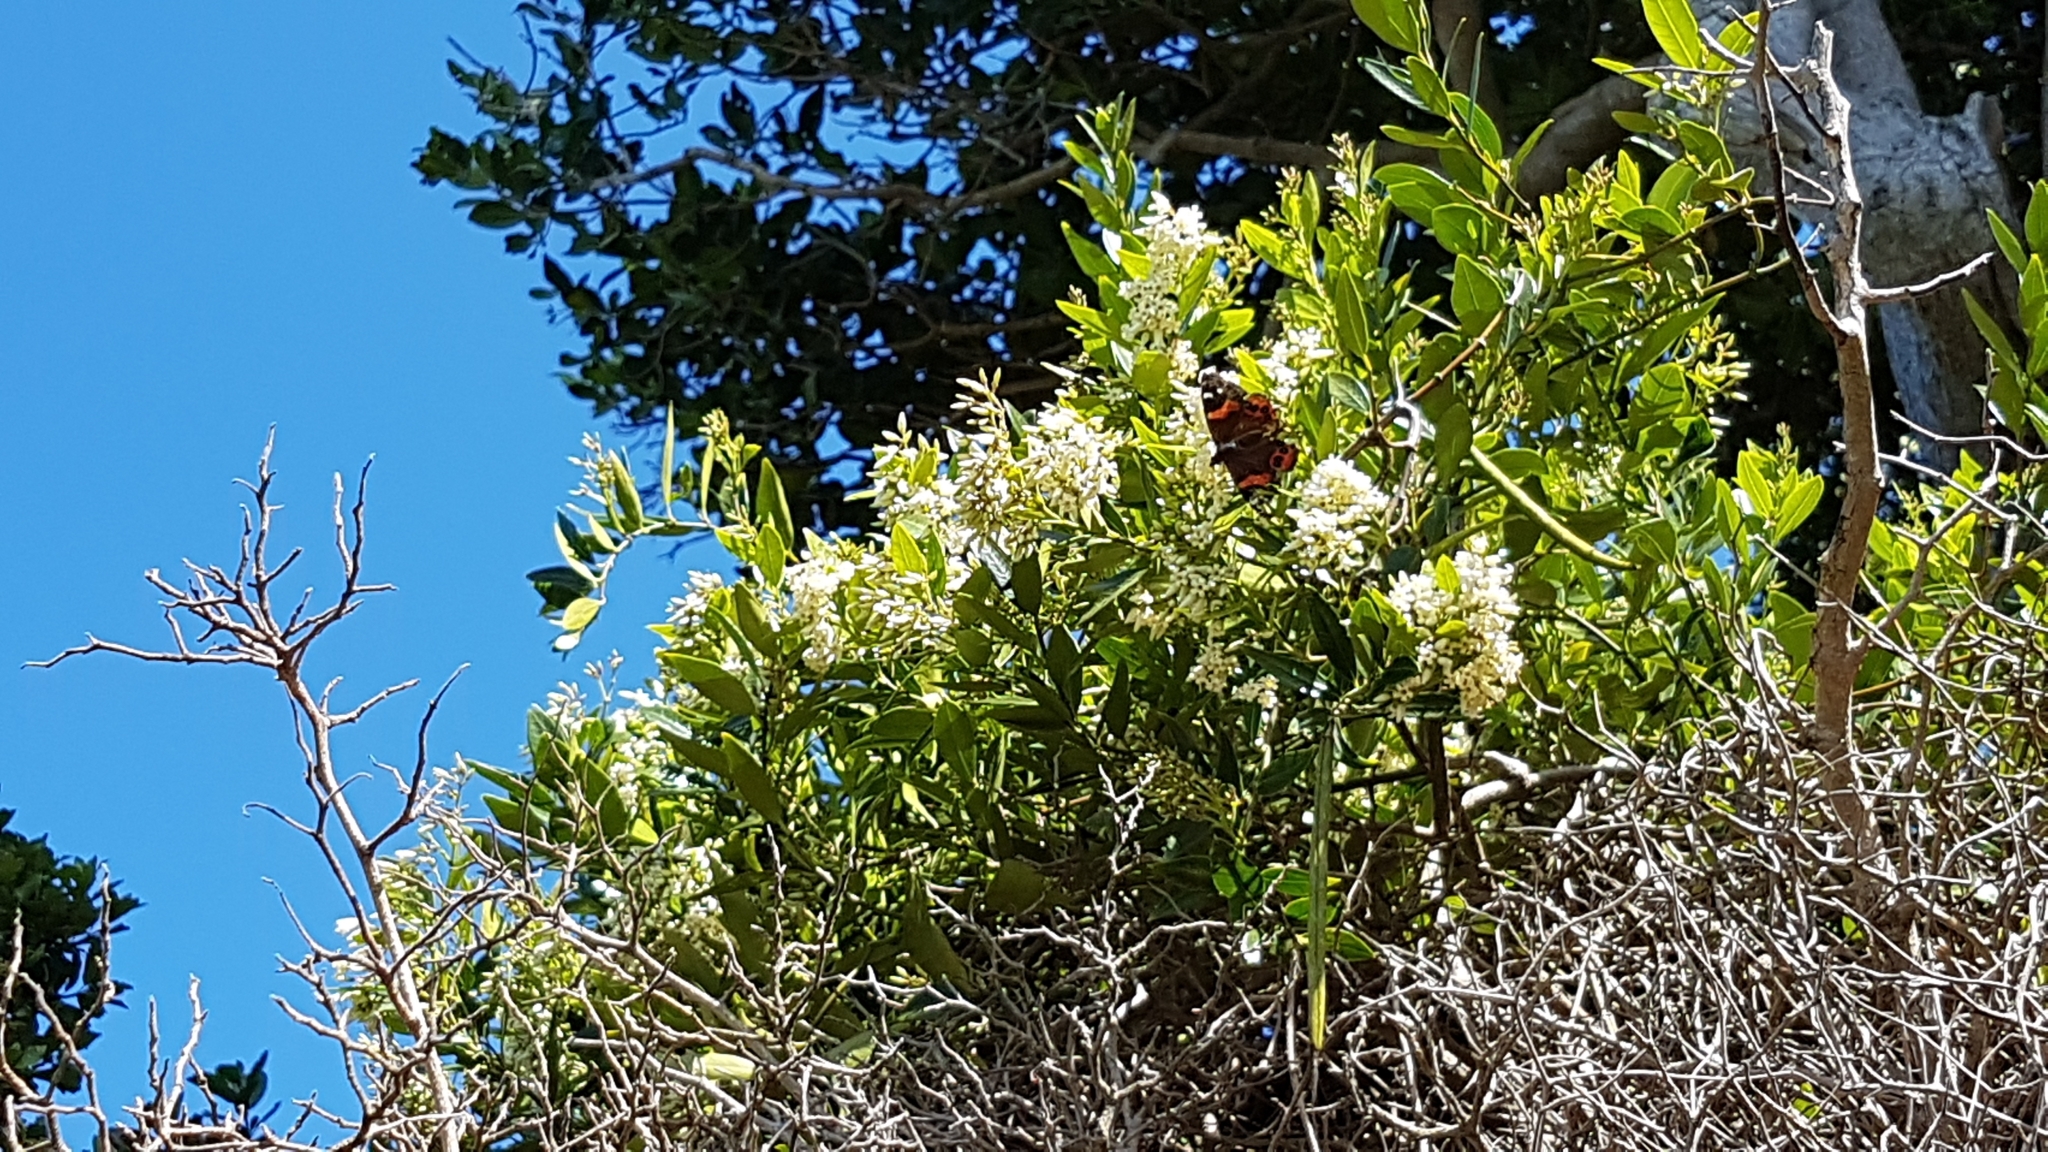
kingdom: Plantae
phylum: Tracheophyta
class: Magnoliopsida
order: Gentianales
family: Apocynaceae
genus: Parsonsia
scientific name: Parsonsia heterophylla
